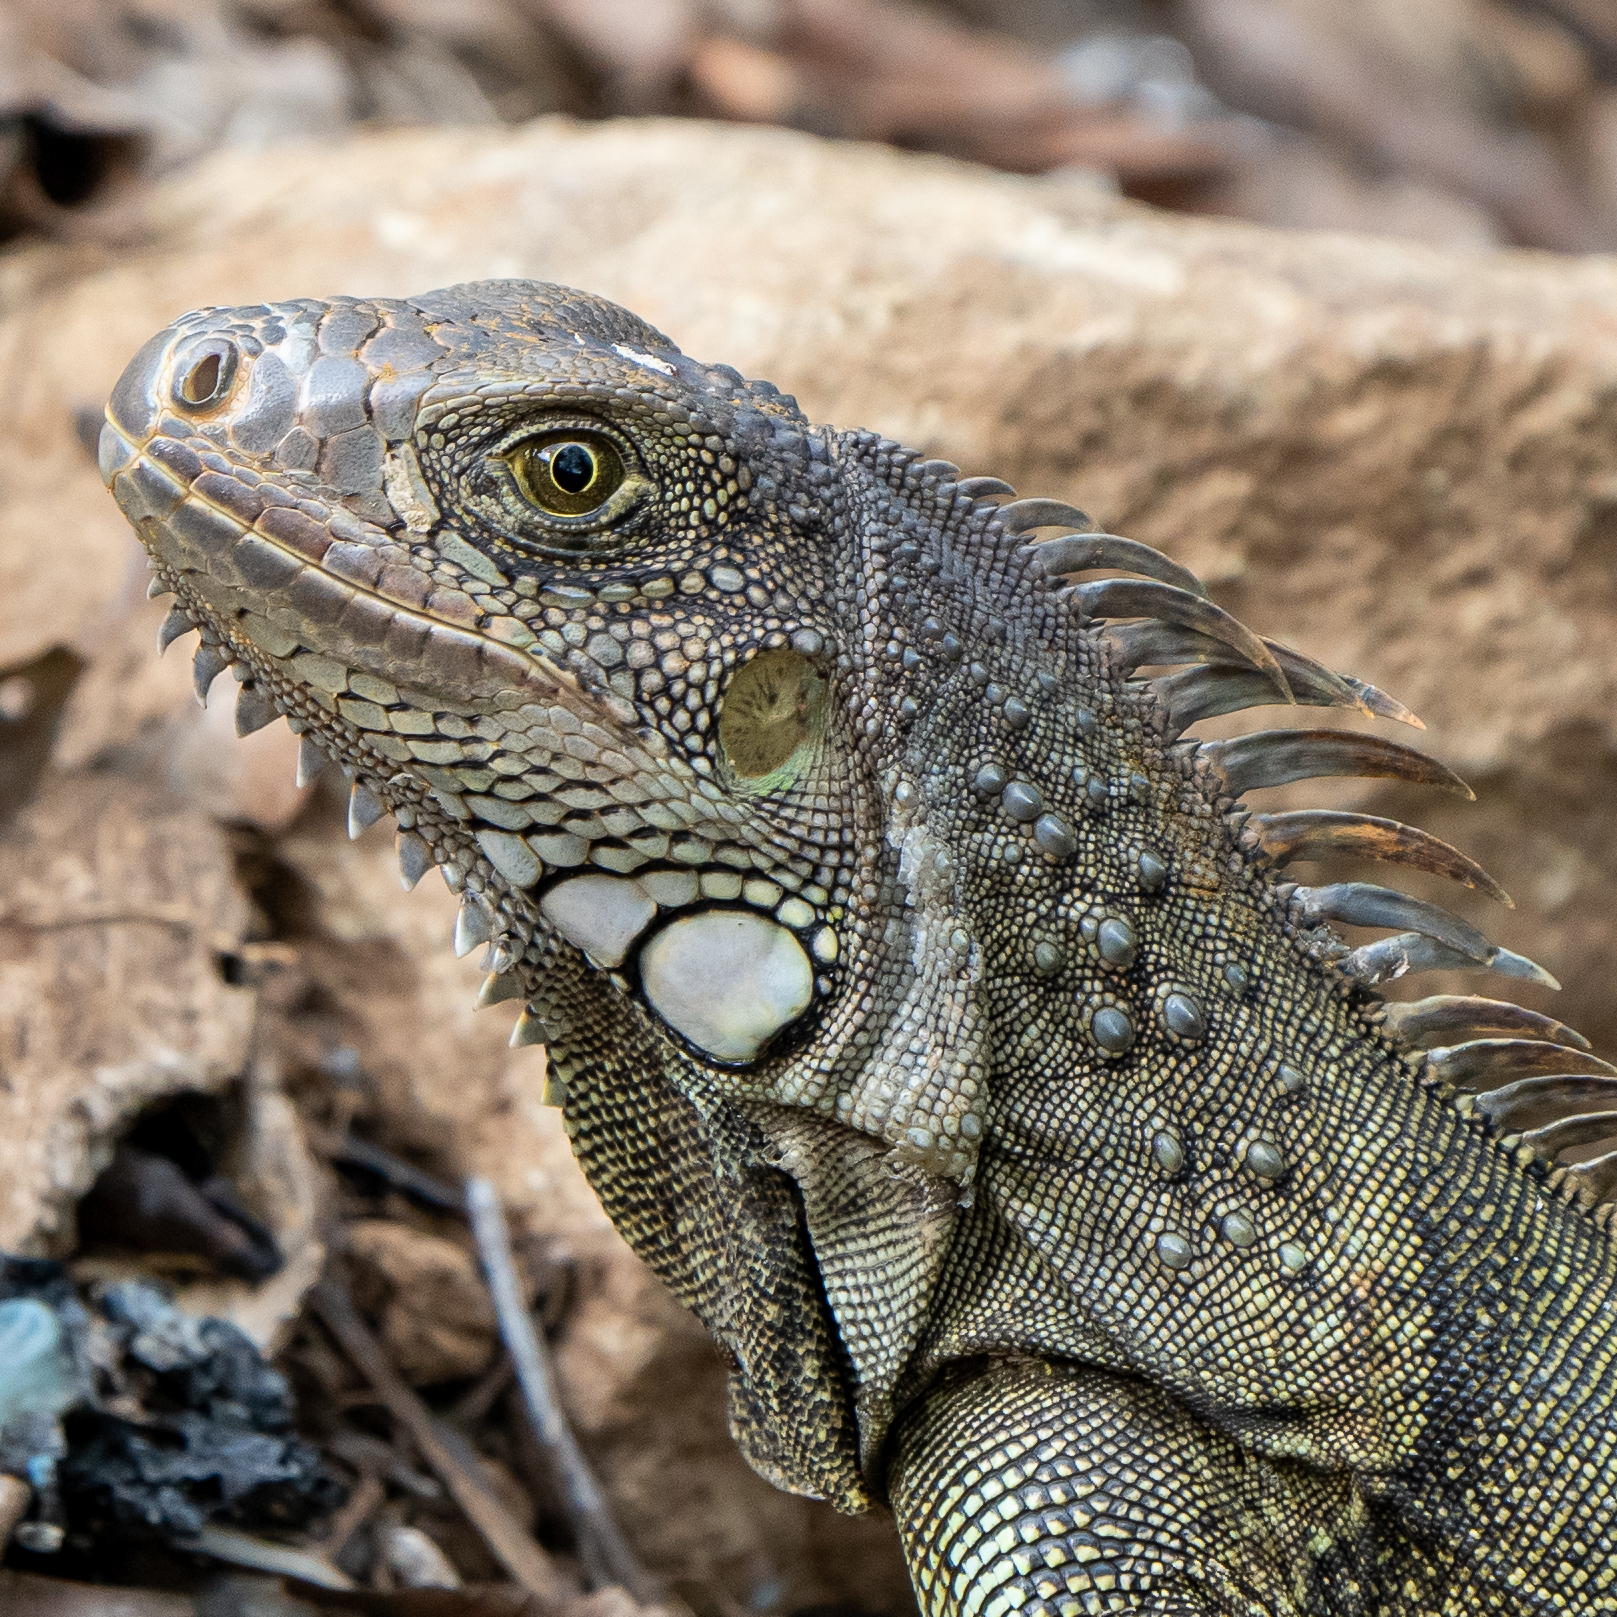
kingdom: Animalia
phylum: Chordata
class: Squamata
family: Iguanidae
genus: Iguana
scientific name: Iguana iguana
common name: Green iguana
